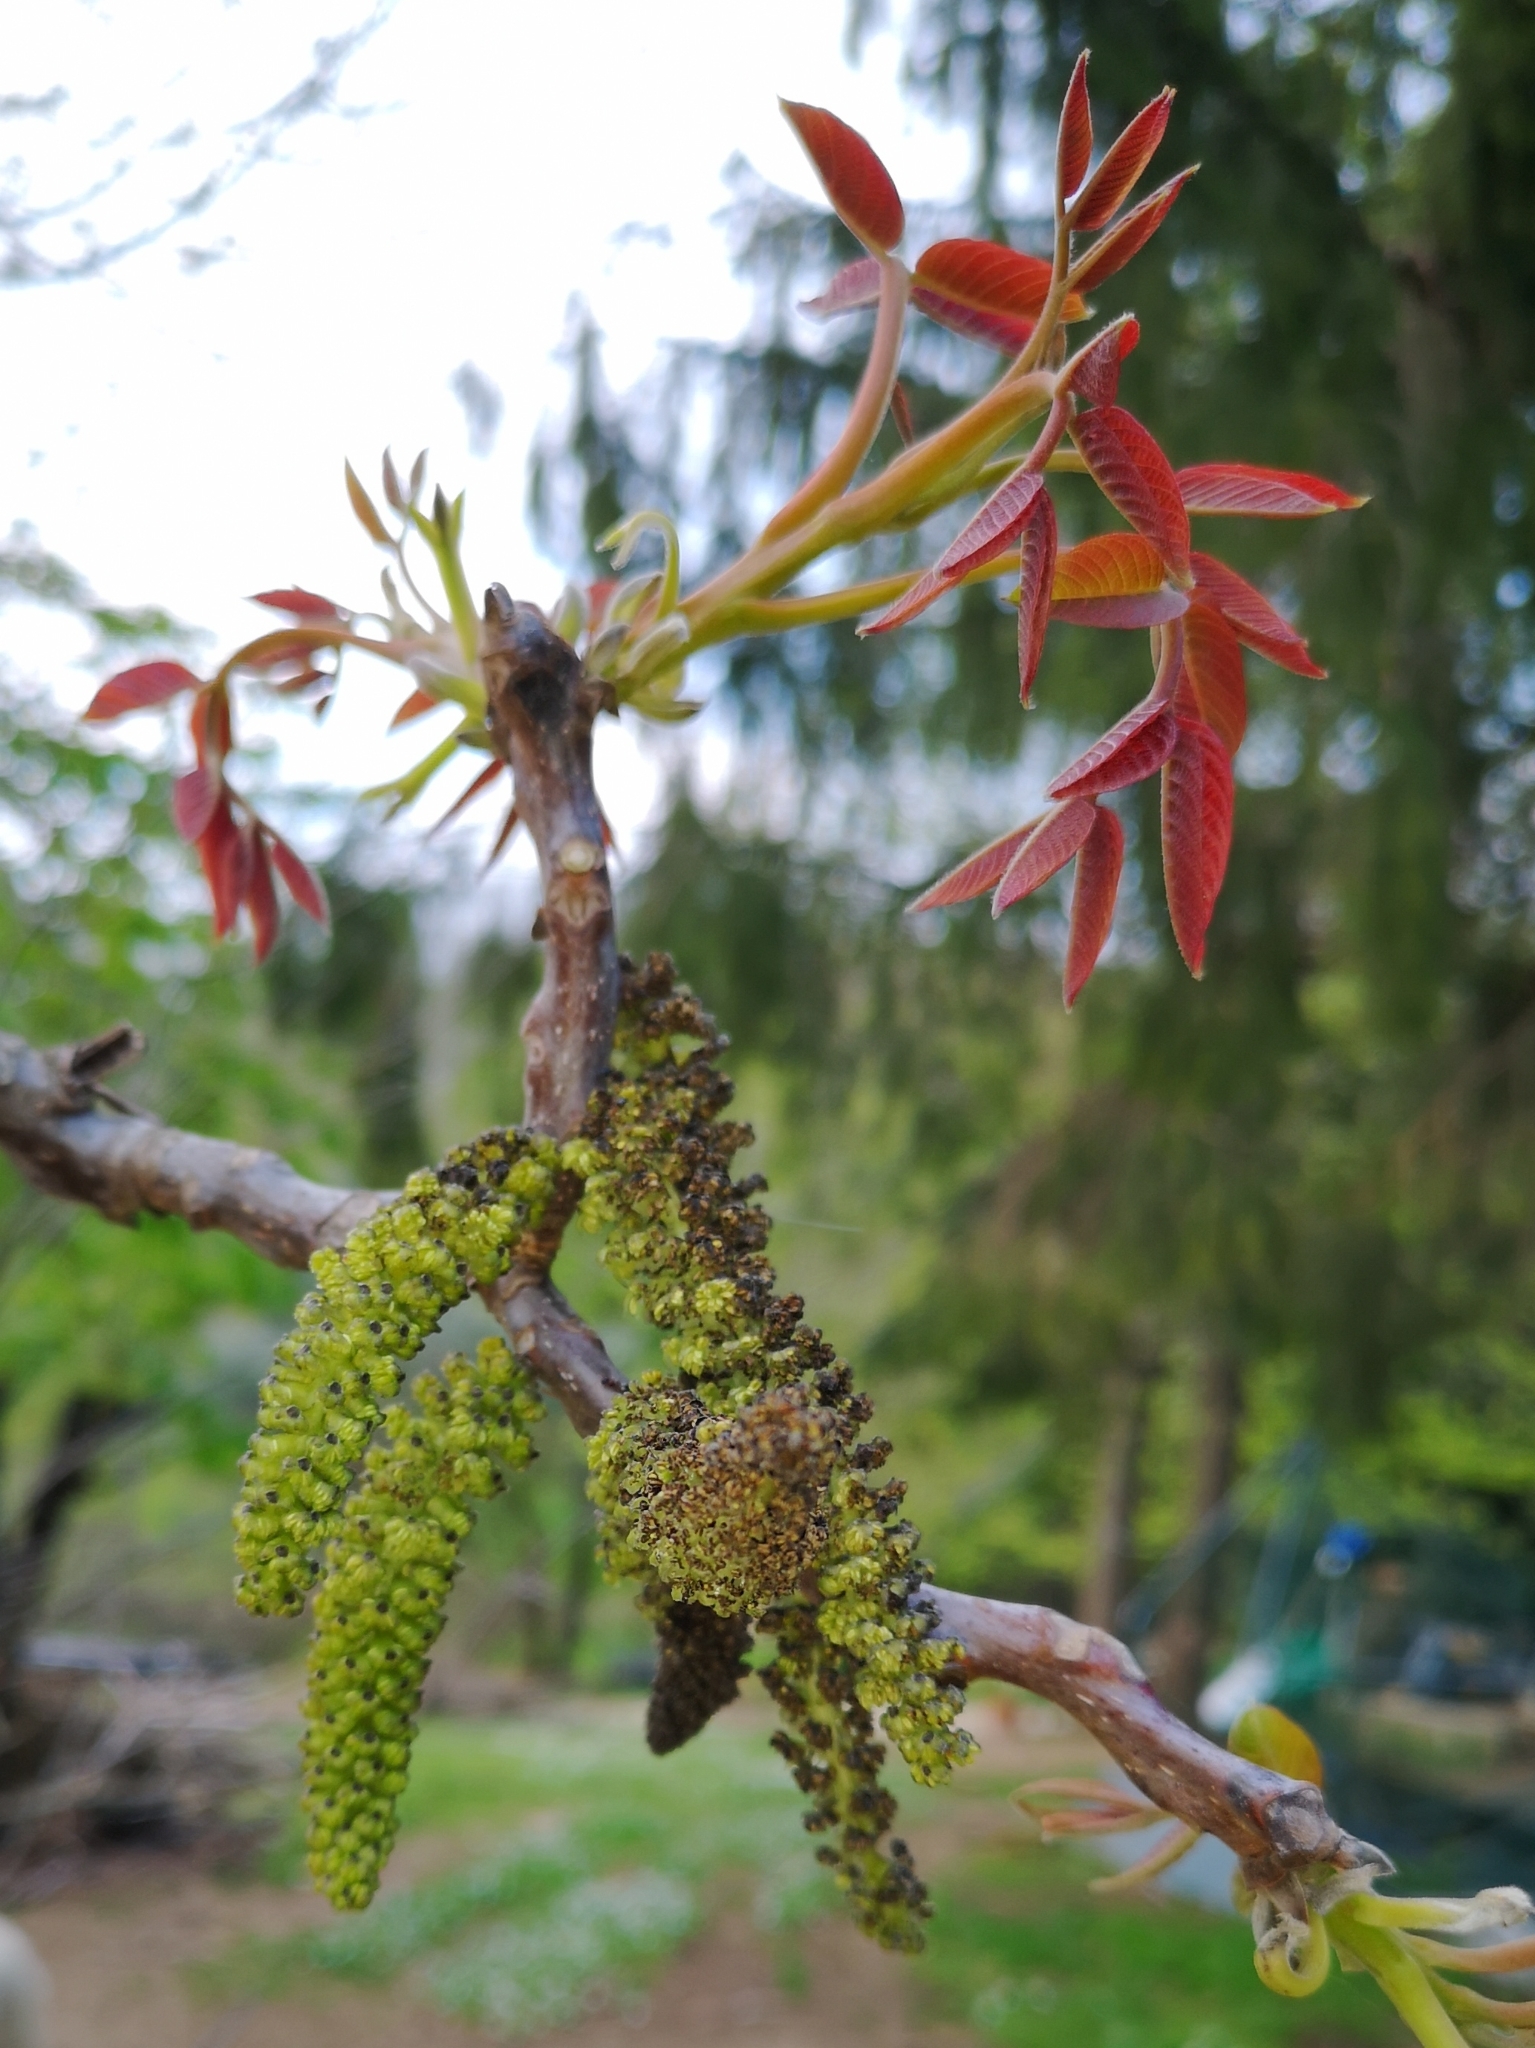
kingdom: Plantae
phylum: Tracheophyta
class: Magnoliopsida
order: Fagales
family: Juglandaceae
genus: Juglans
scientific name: Juglans regia
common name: Walnut
